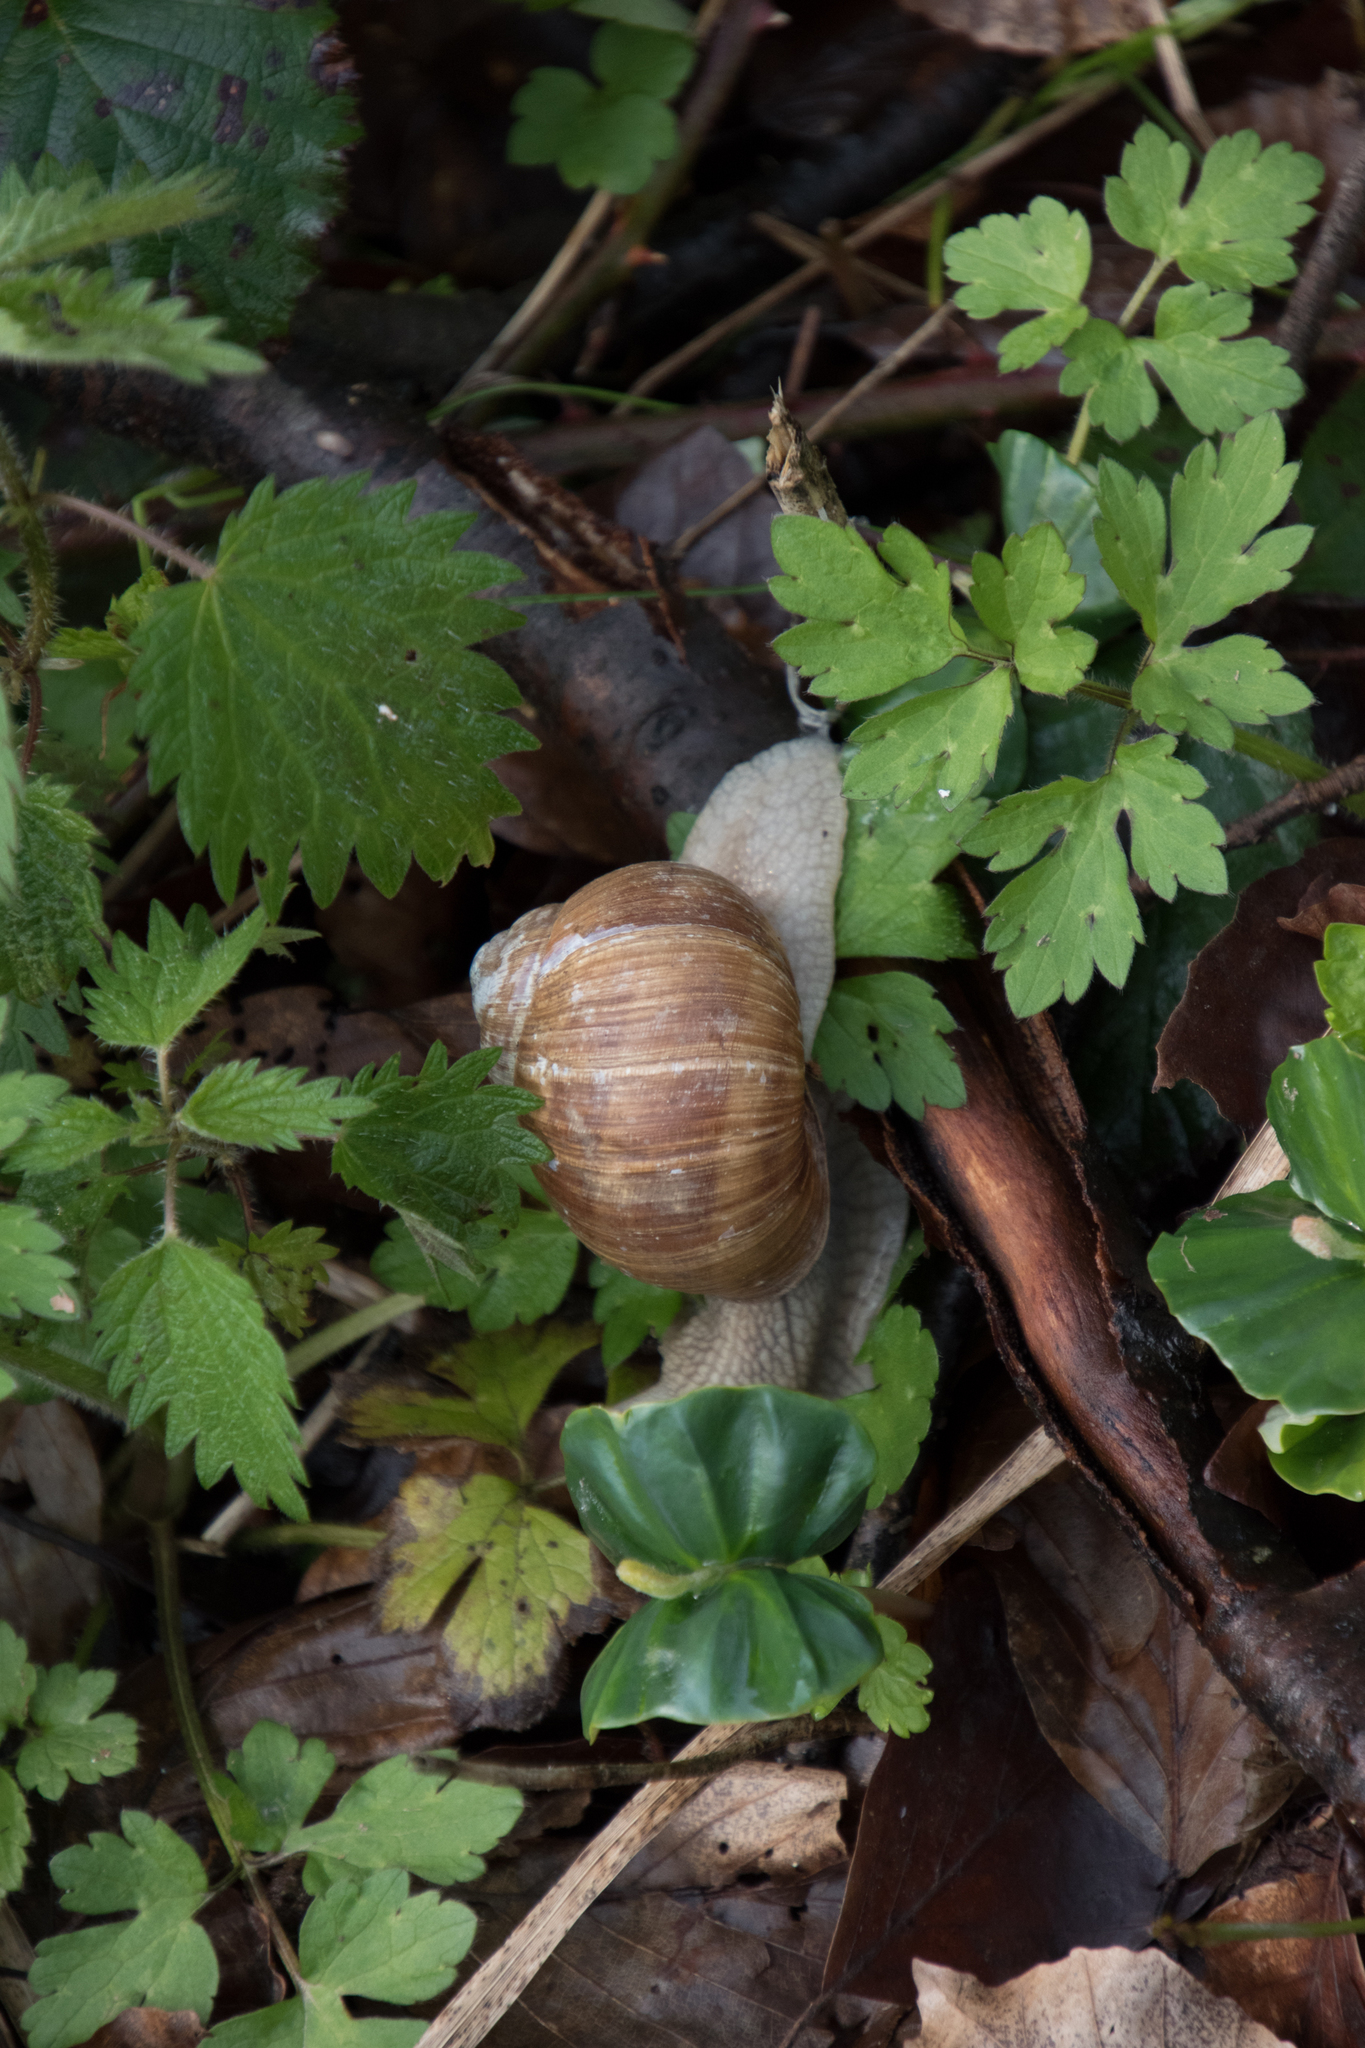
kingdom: Animalia
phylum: Mollusca
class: Gastropoda
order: Stylommatophora
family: Helicidae
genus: Helix
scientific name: Helix pomatia
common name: Roman snail
